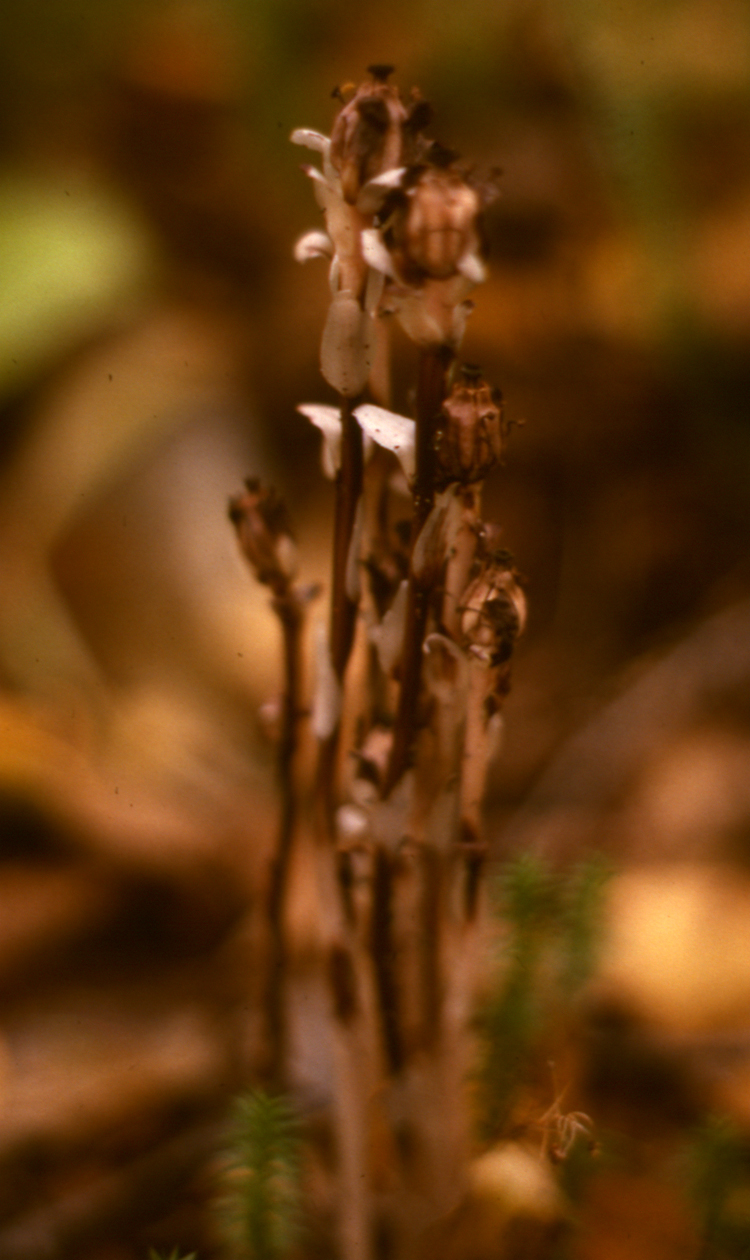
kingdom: Plantae
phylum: Tracheophyta
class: Magnoliopsida
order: Ericales
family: Ericaceae
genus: Monotropa
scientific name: Monotropa uniflora
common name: Convulsion root
